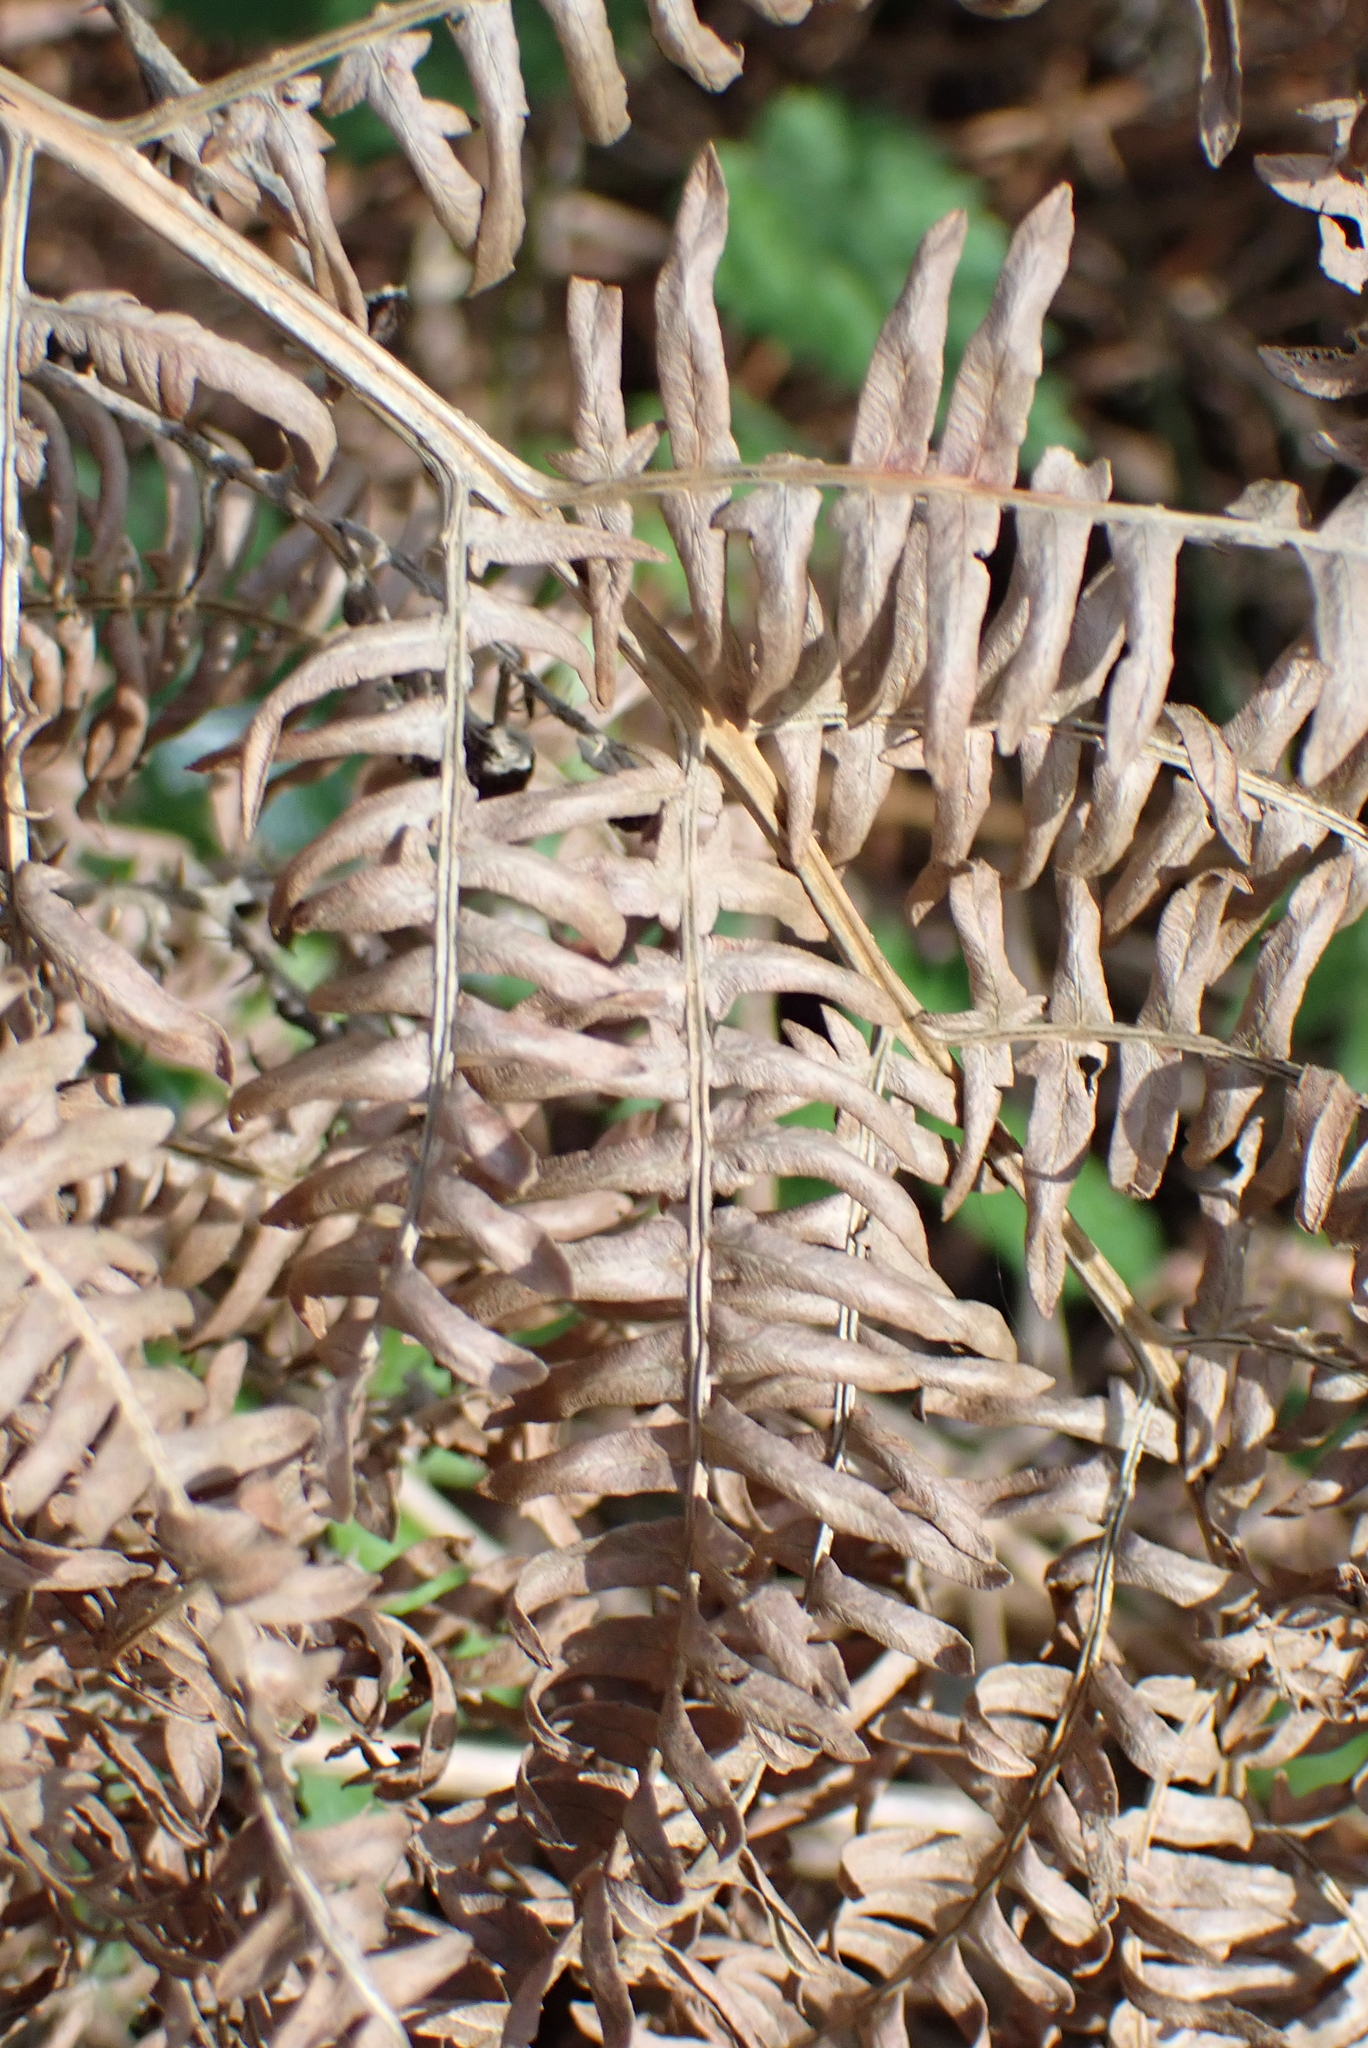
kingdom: Plantae
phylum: Tracheophyta
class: Polypodiopsida
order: Polypodiales
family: Dennstaedtiaceae
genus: Pteridium
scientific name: Pteridium aquilinum
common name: Bracken
